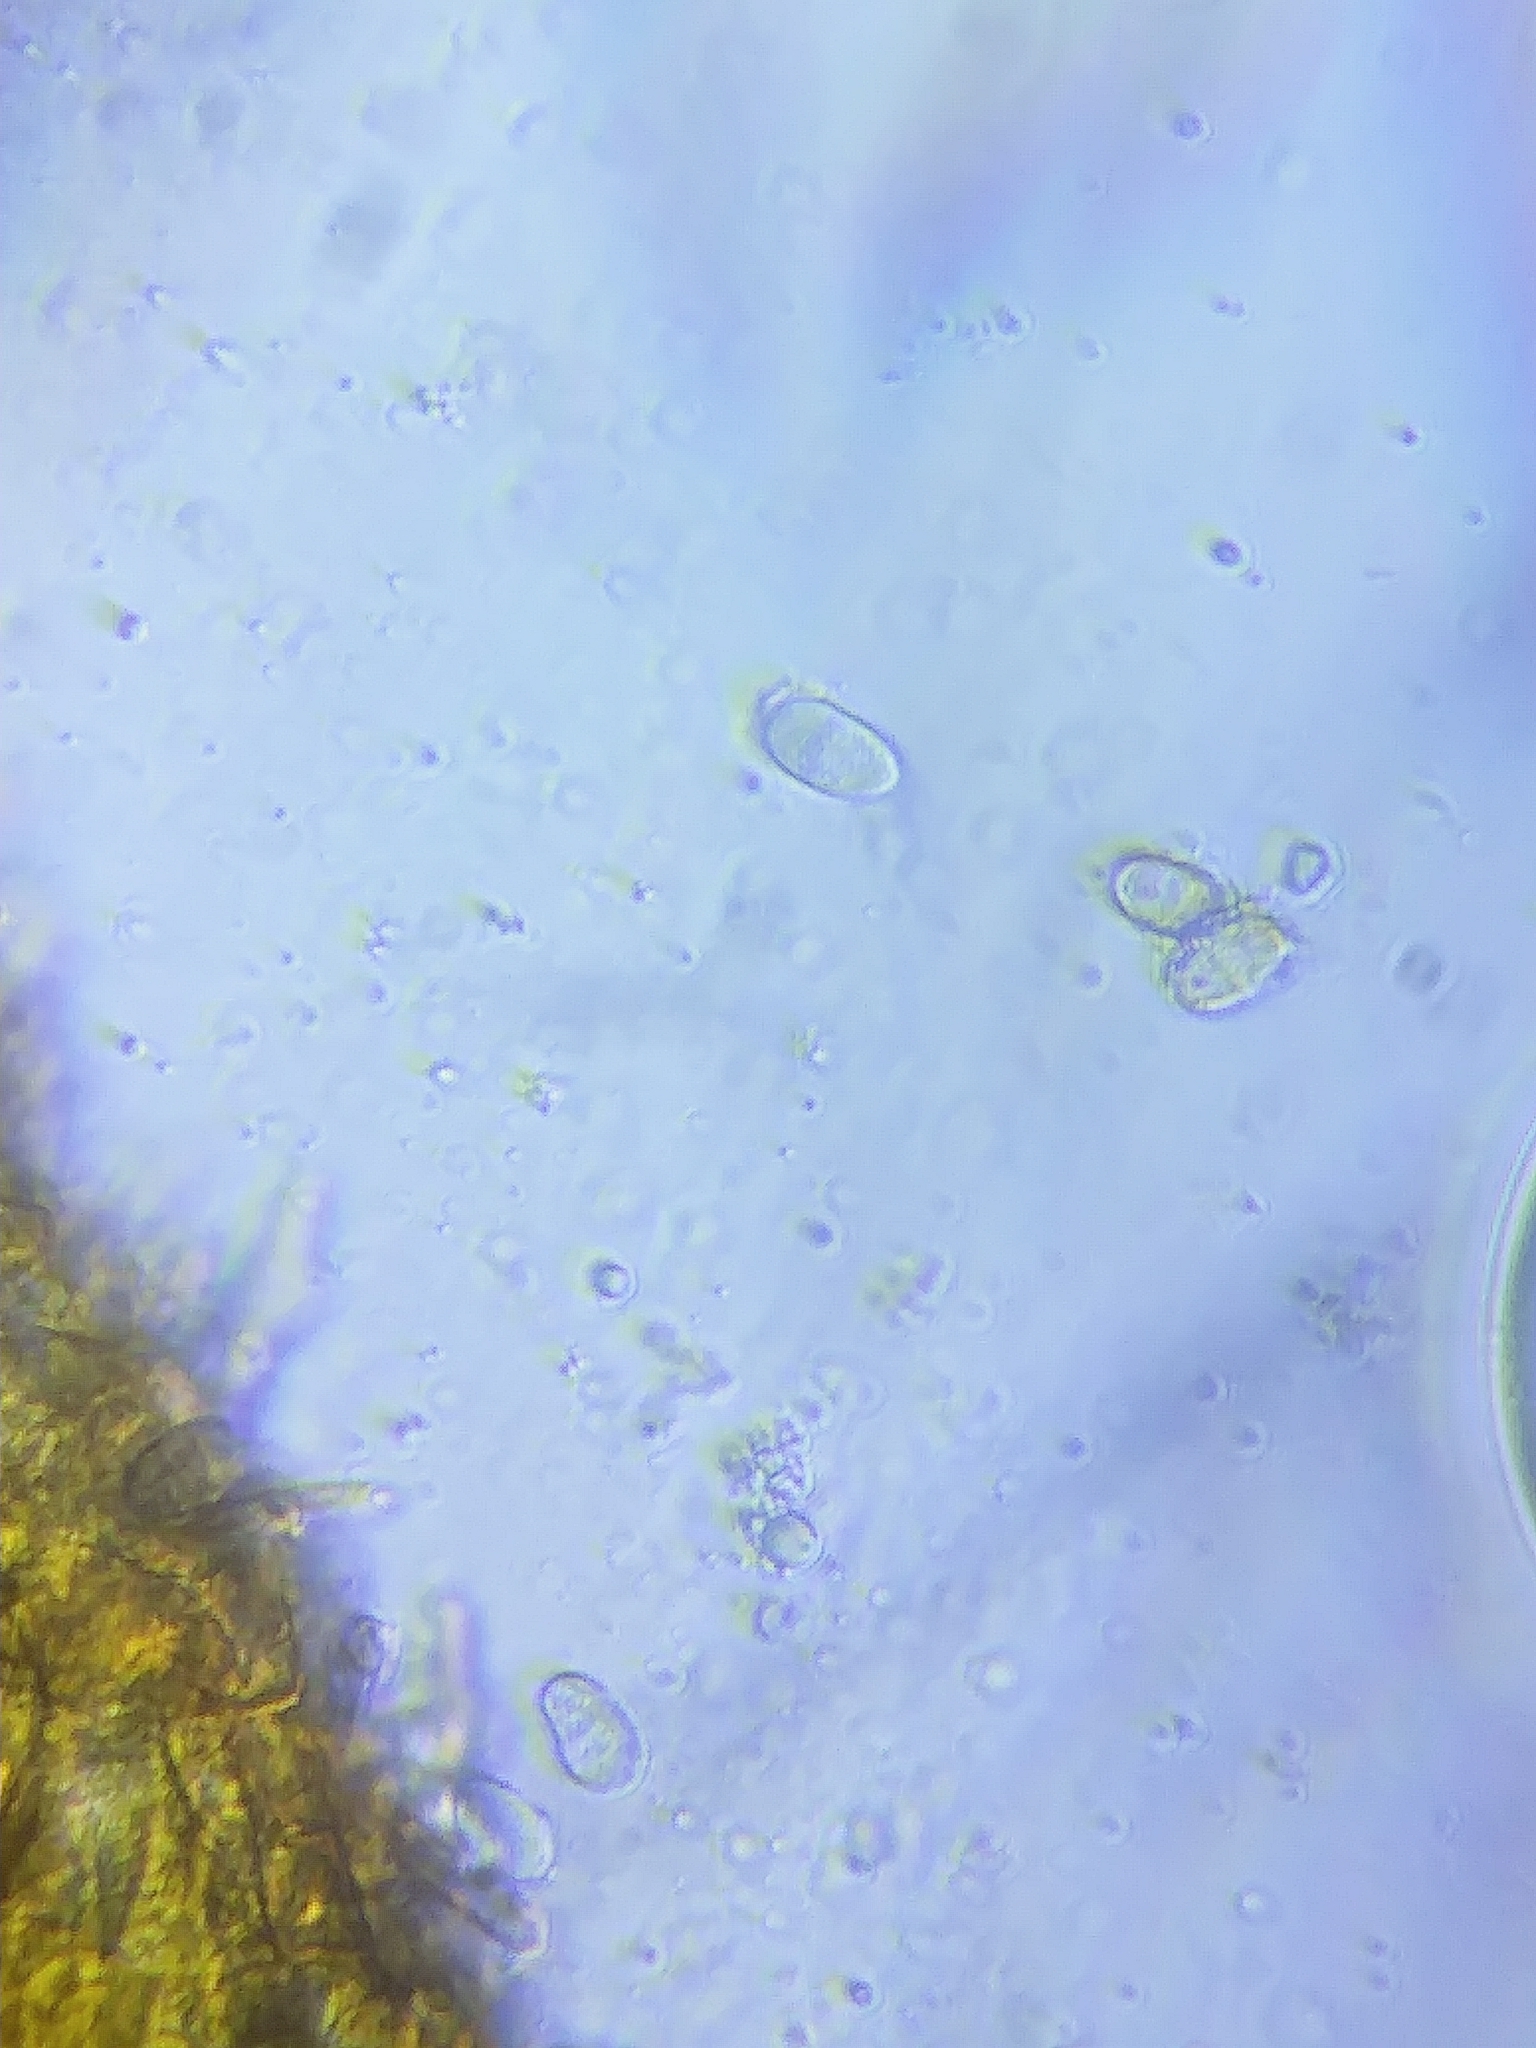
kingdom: Fungi
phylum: Ascomycota
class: Sordariomycetes
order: Hypocreales
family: Hypocreaceae
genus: Hypomyces
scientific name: Hypomyces aurantius
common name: Orange polypore mould
